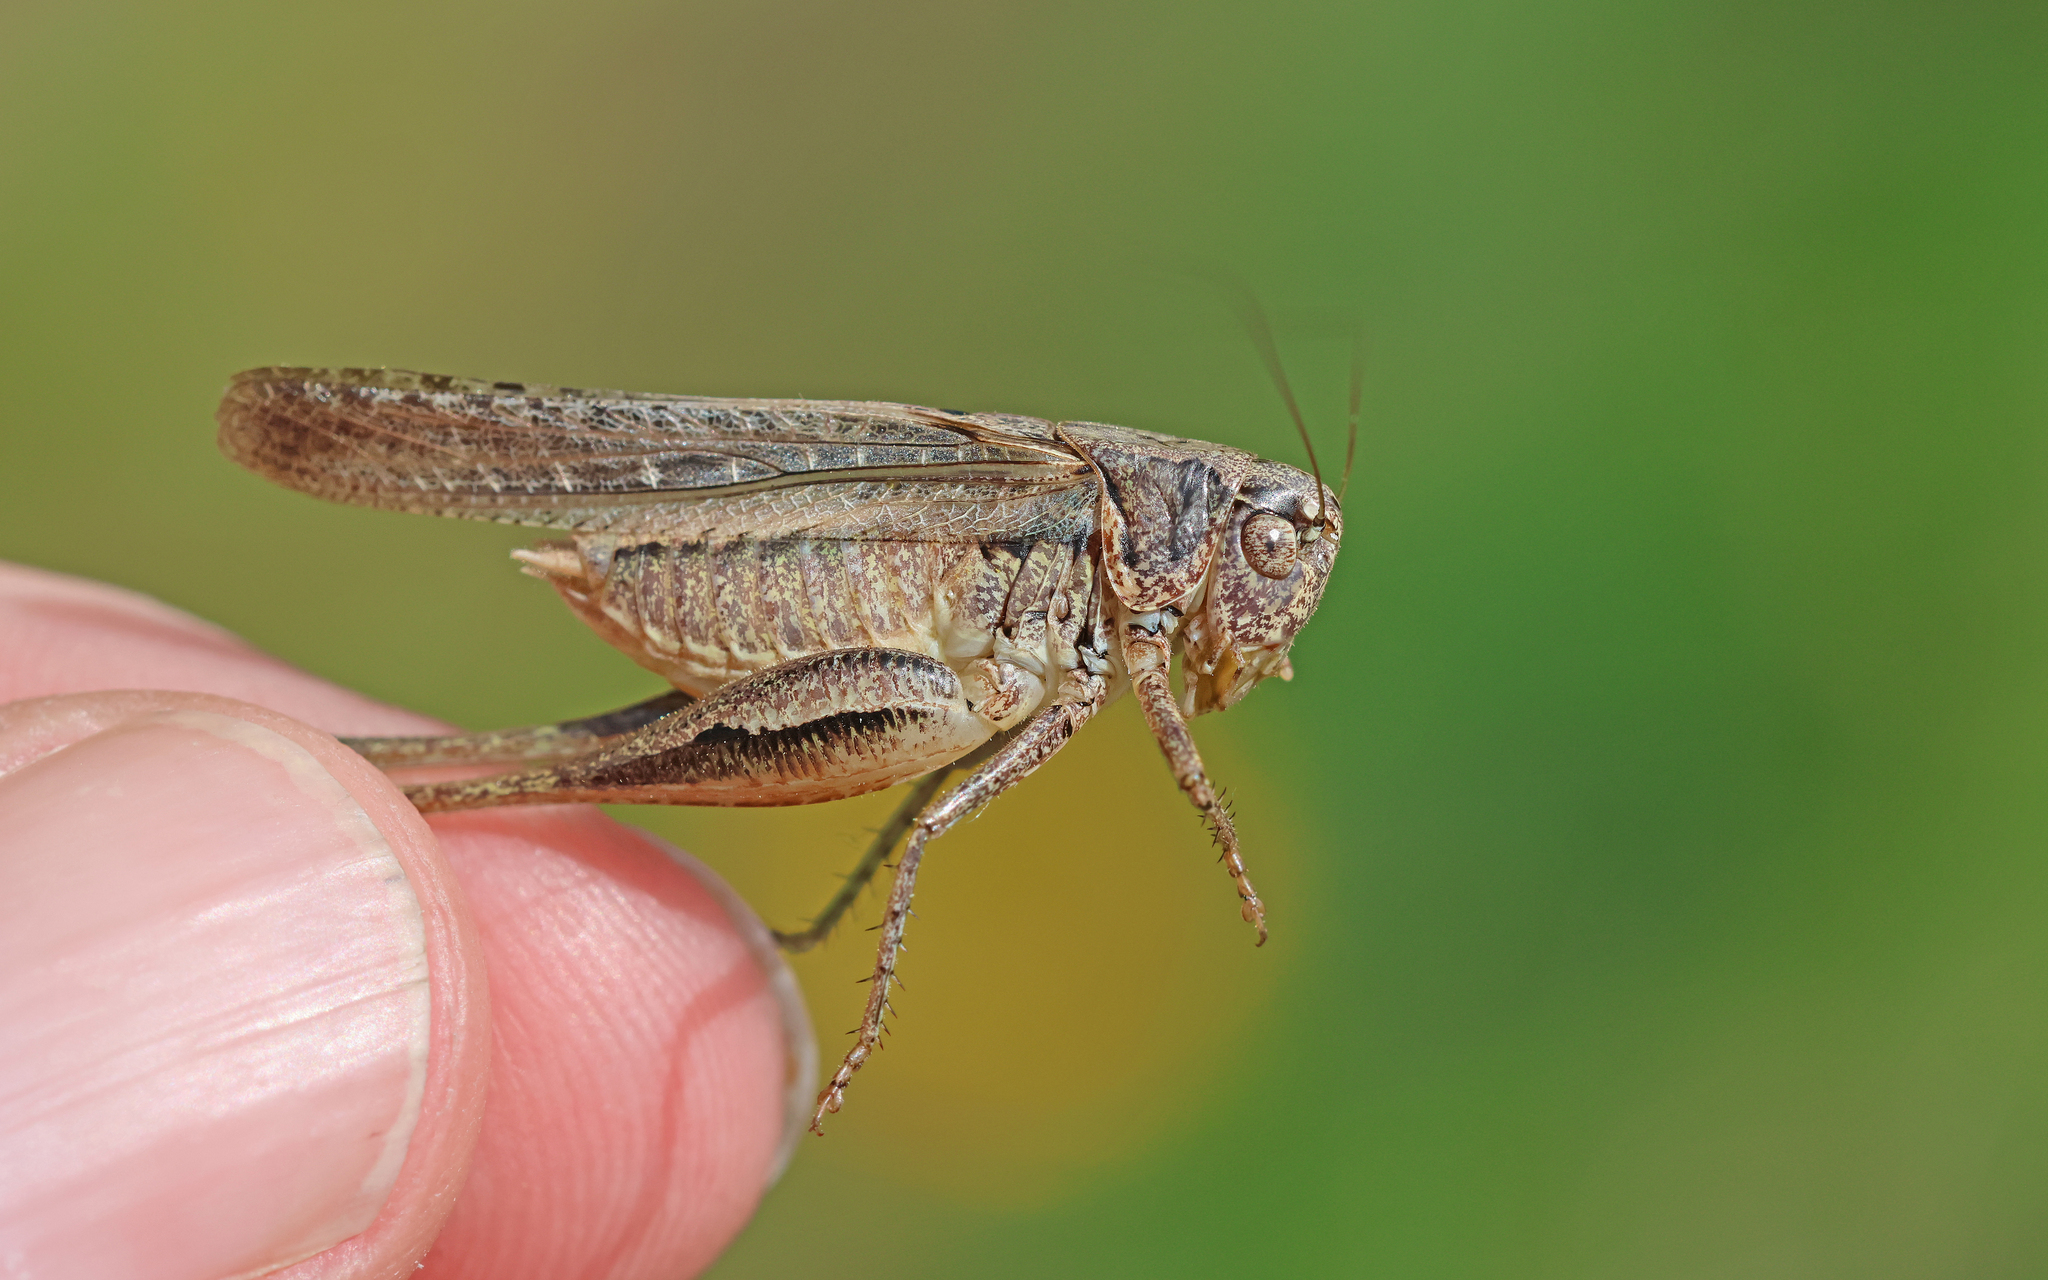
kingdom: Animalia
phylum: Arthropoda
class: Insecta
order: Orthoptera
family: Tettigoniidae
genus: Platycleis
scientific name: Platycleis grisea
